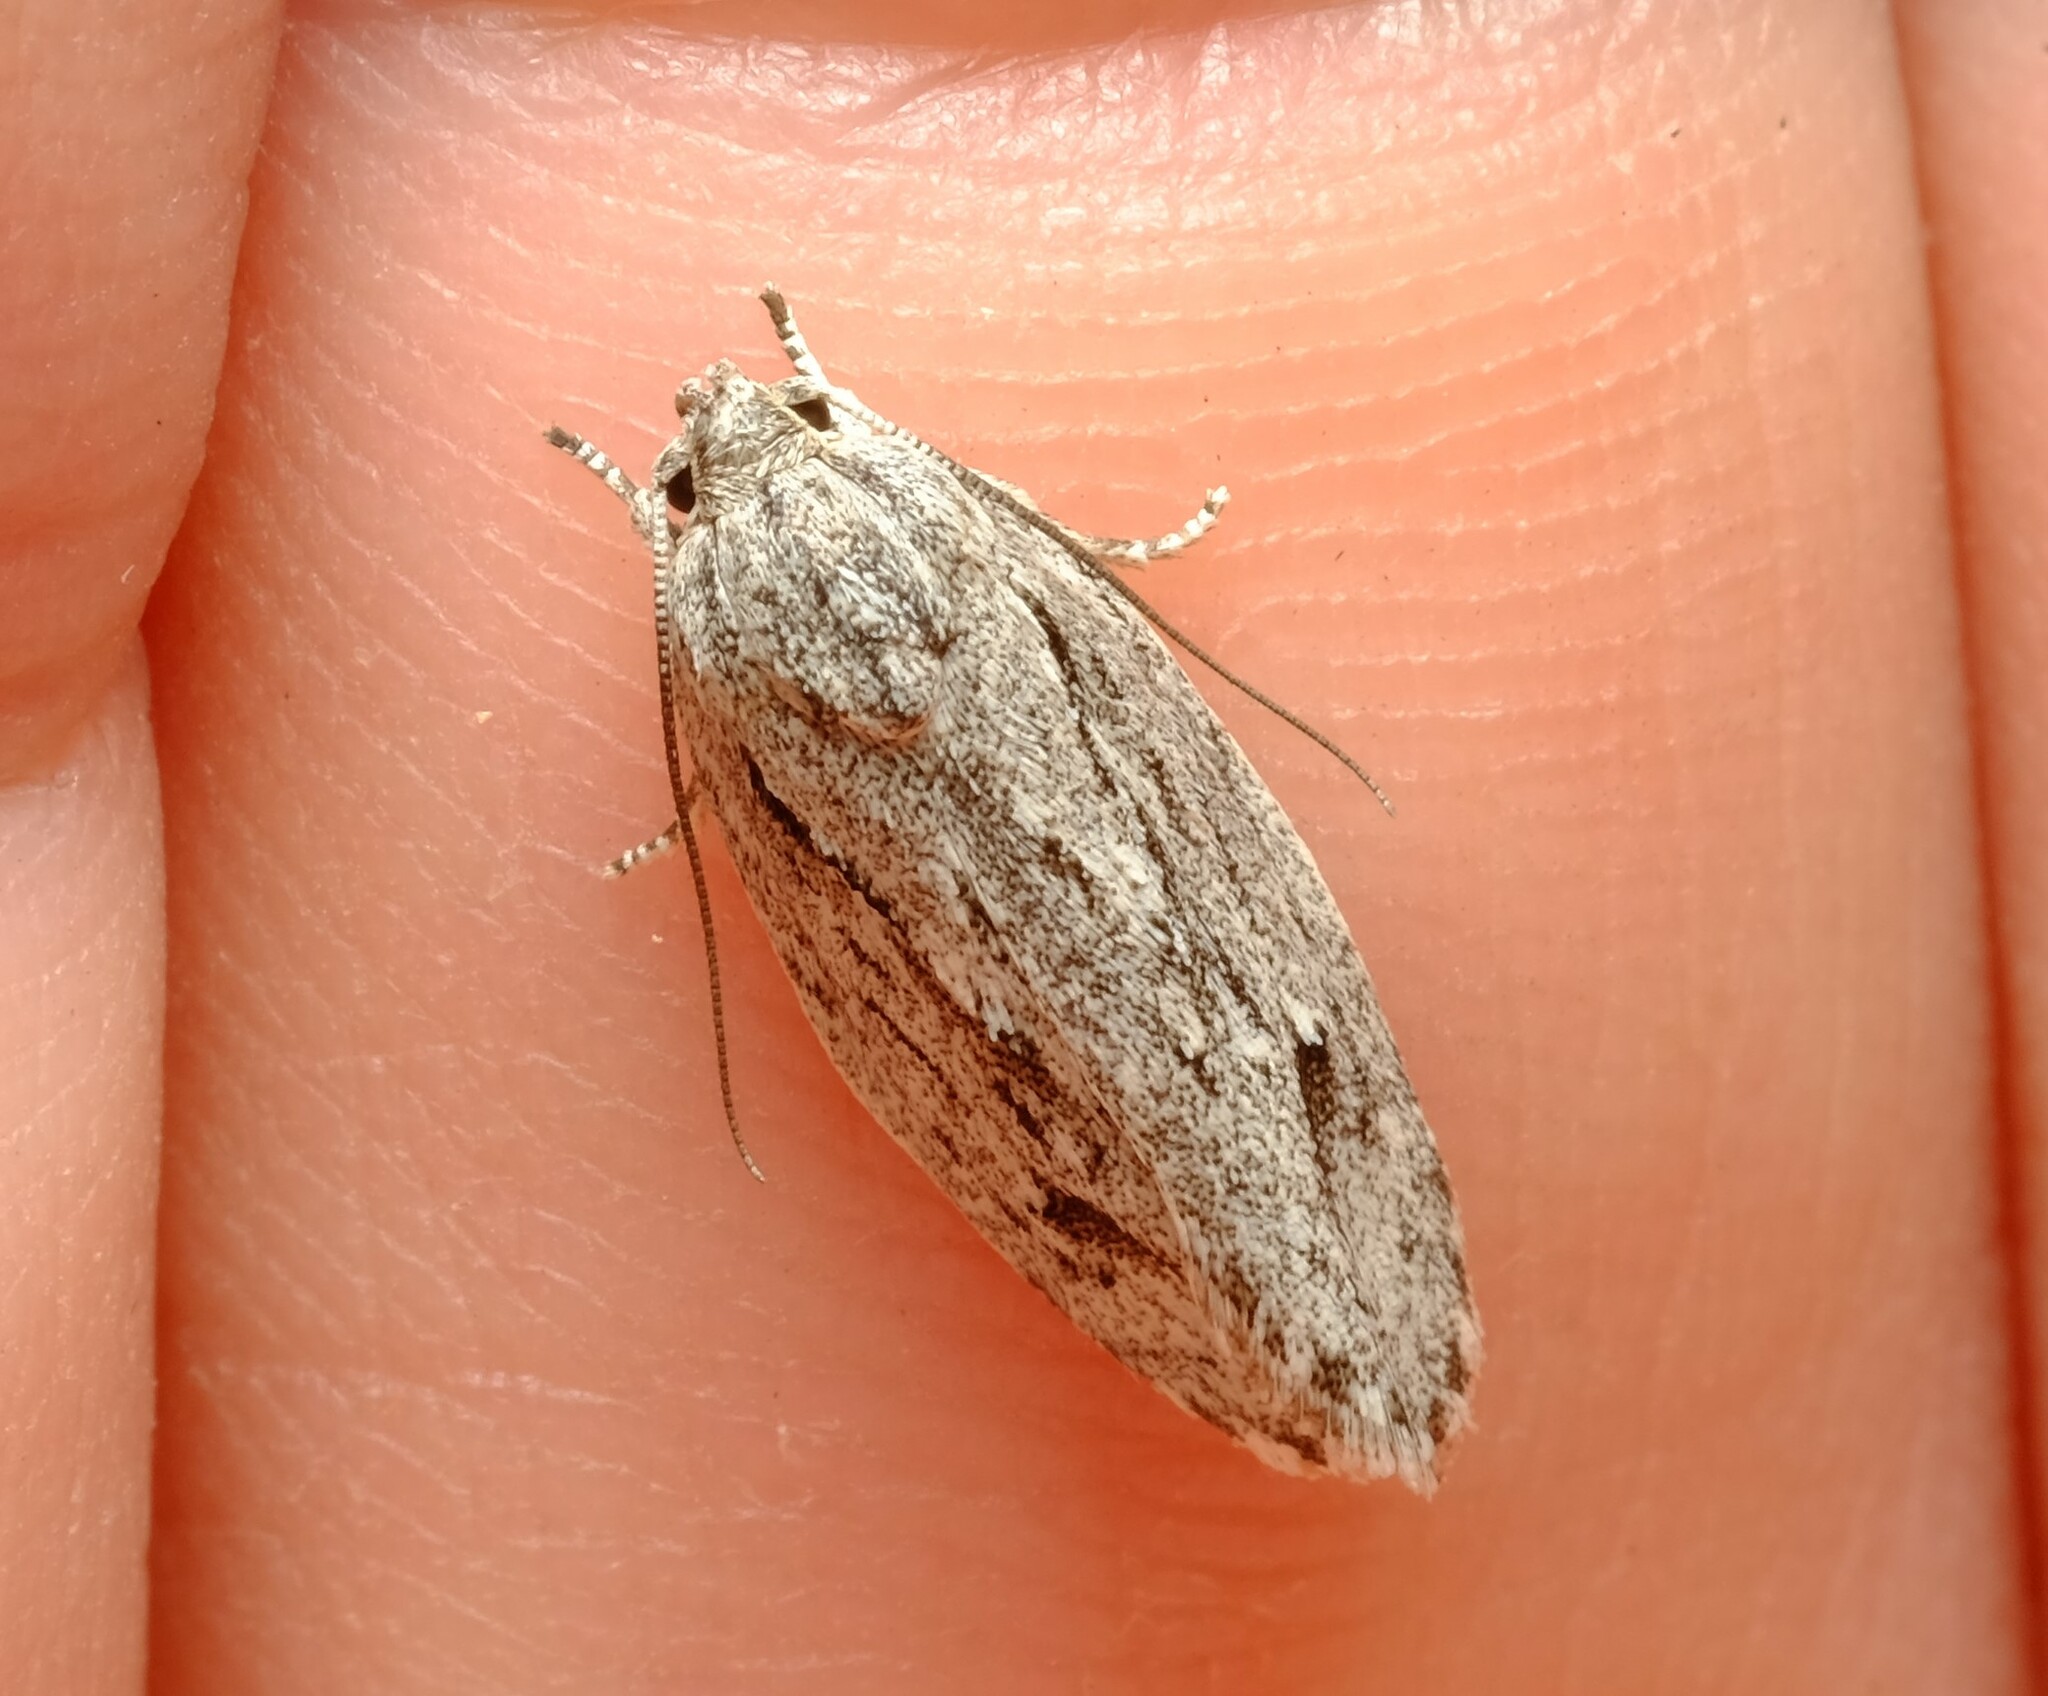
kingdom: Animalia
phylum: Arthropoda
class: Insecta
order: Lepidoptera
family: Depressariidae
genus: Agriophara
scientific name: Agriophara confertella
